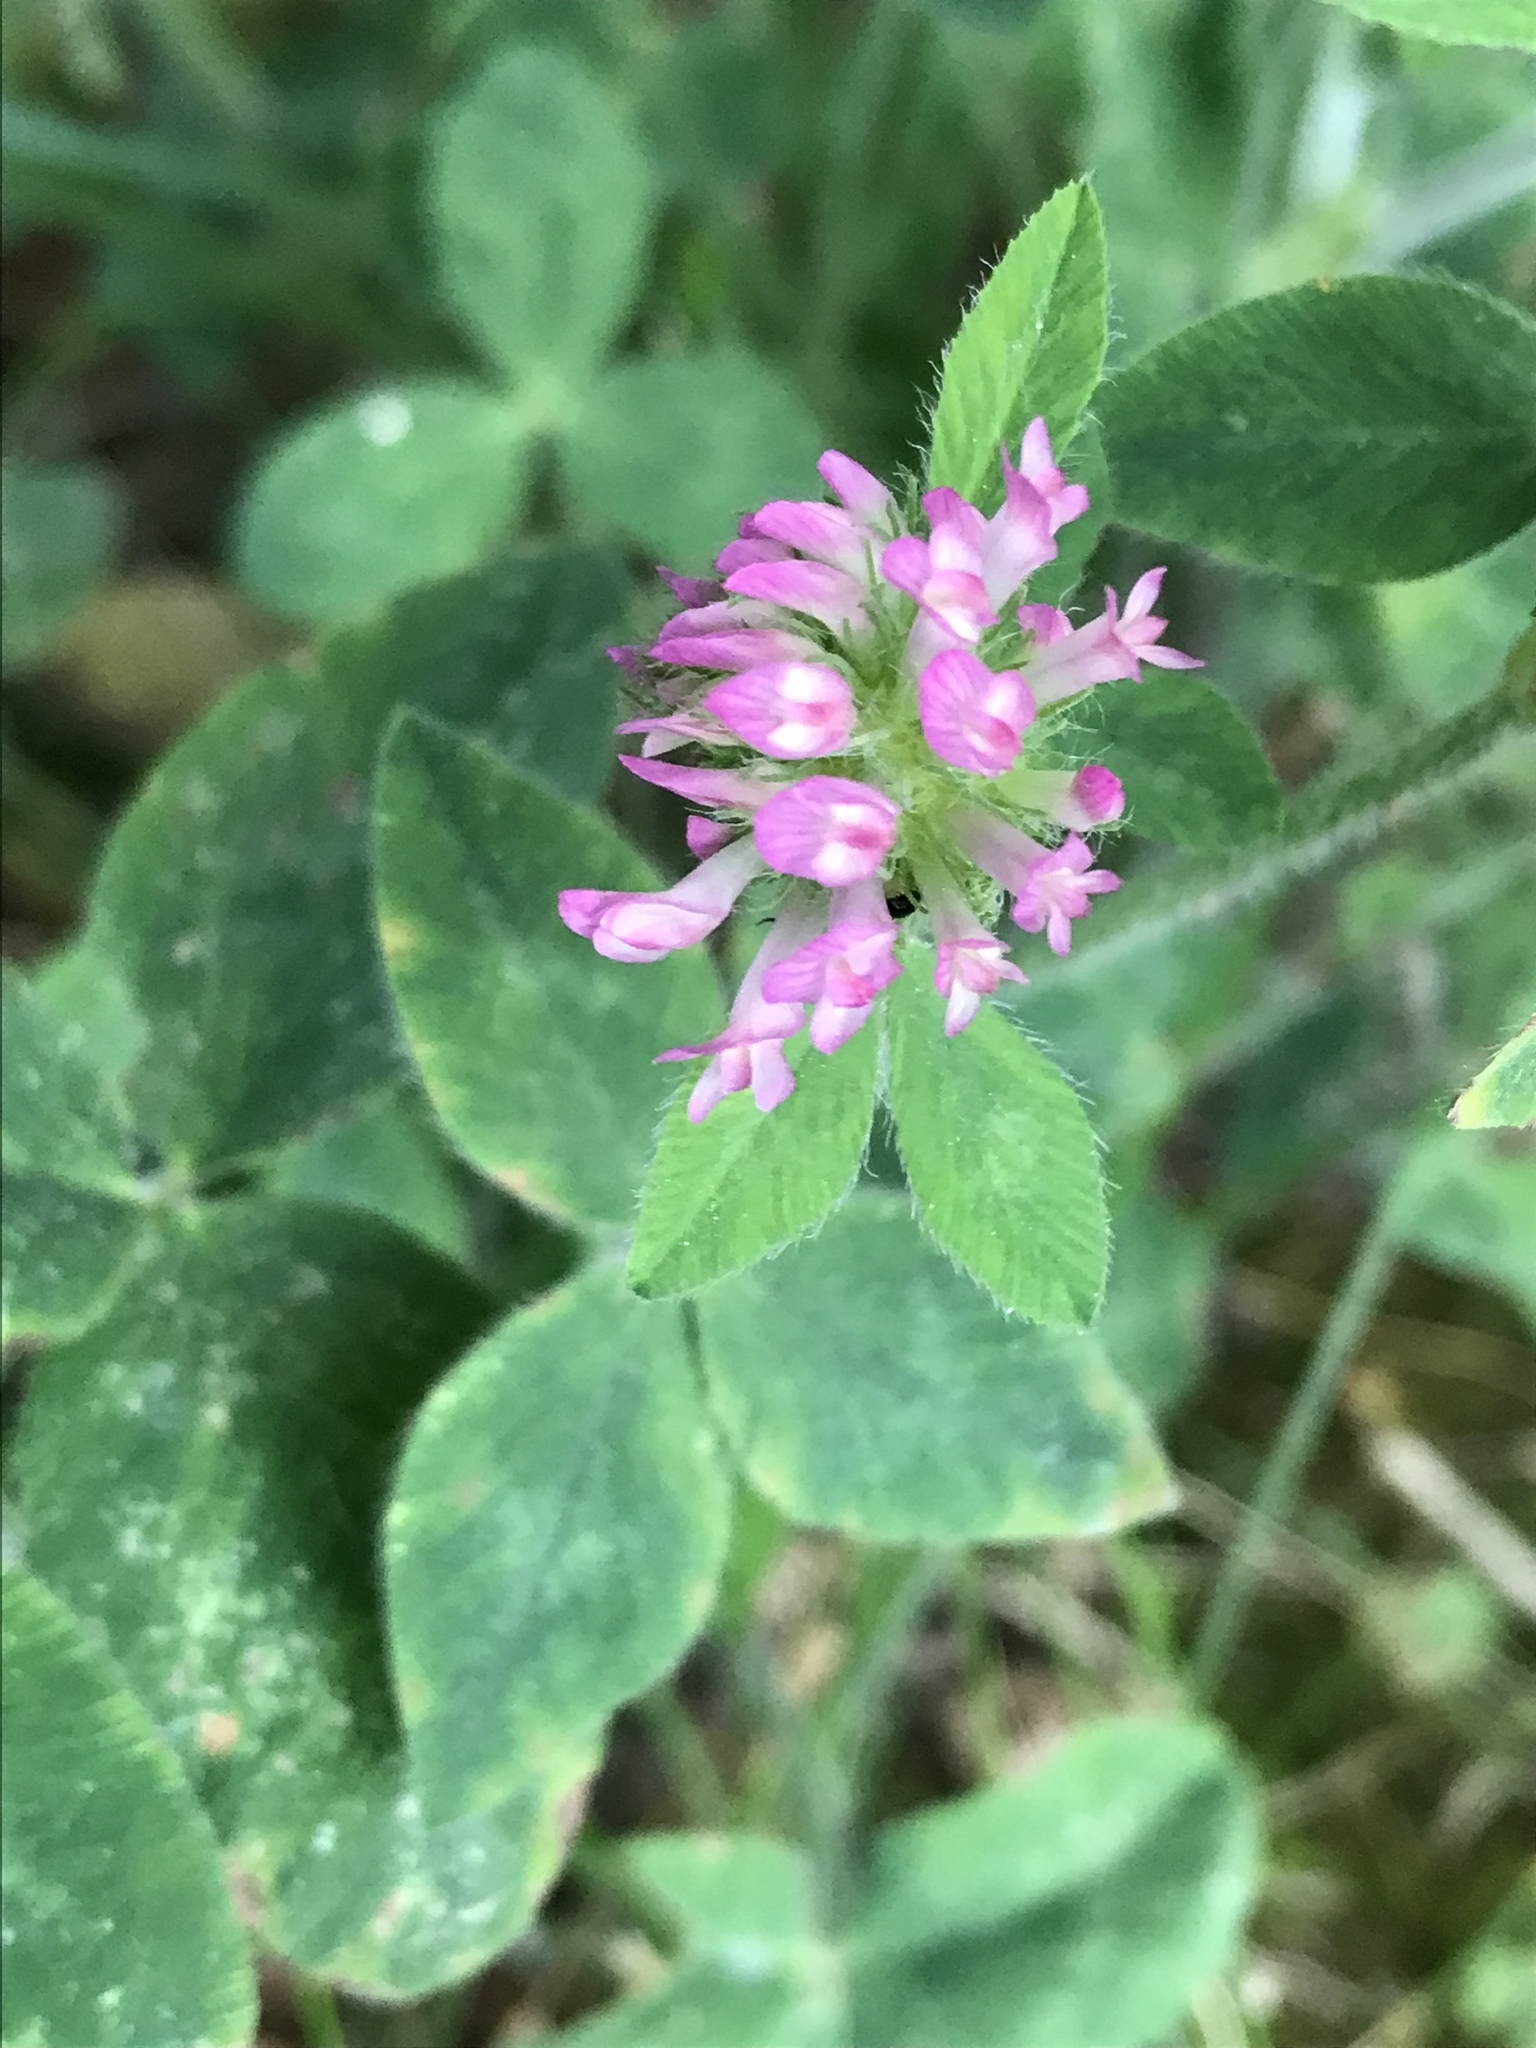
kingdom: Plantae
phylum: Tracheophyta
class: Magnoliopsida
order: Fabales
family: Fabaceae
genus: Trifolium
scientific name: Trifolium pratense
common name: Red clover
